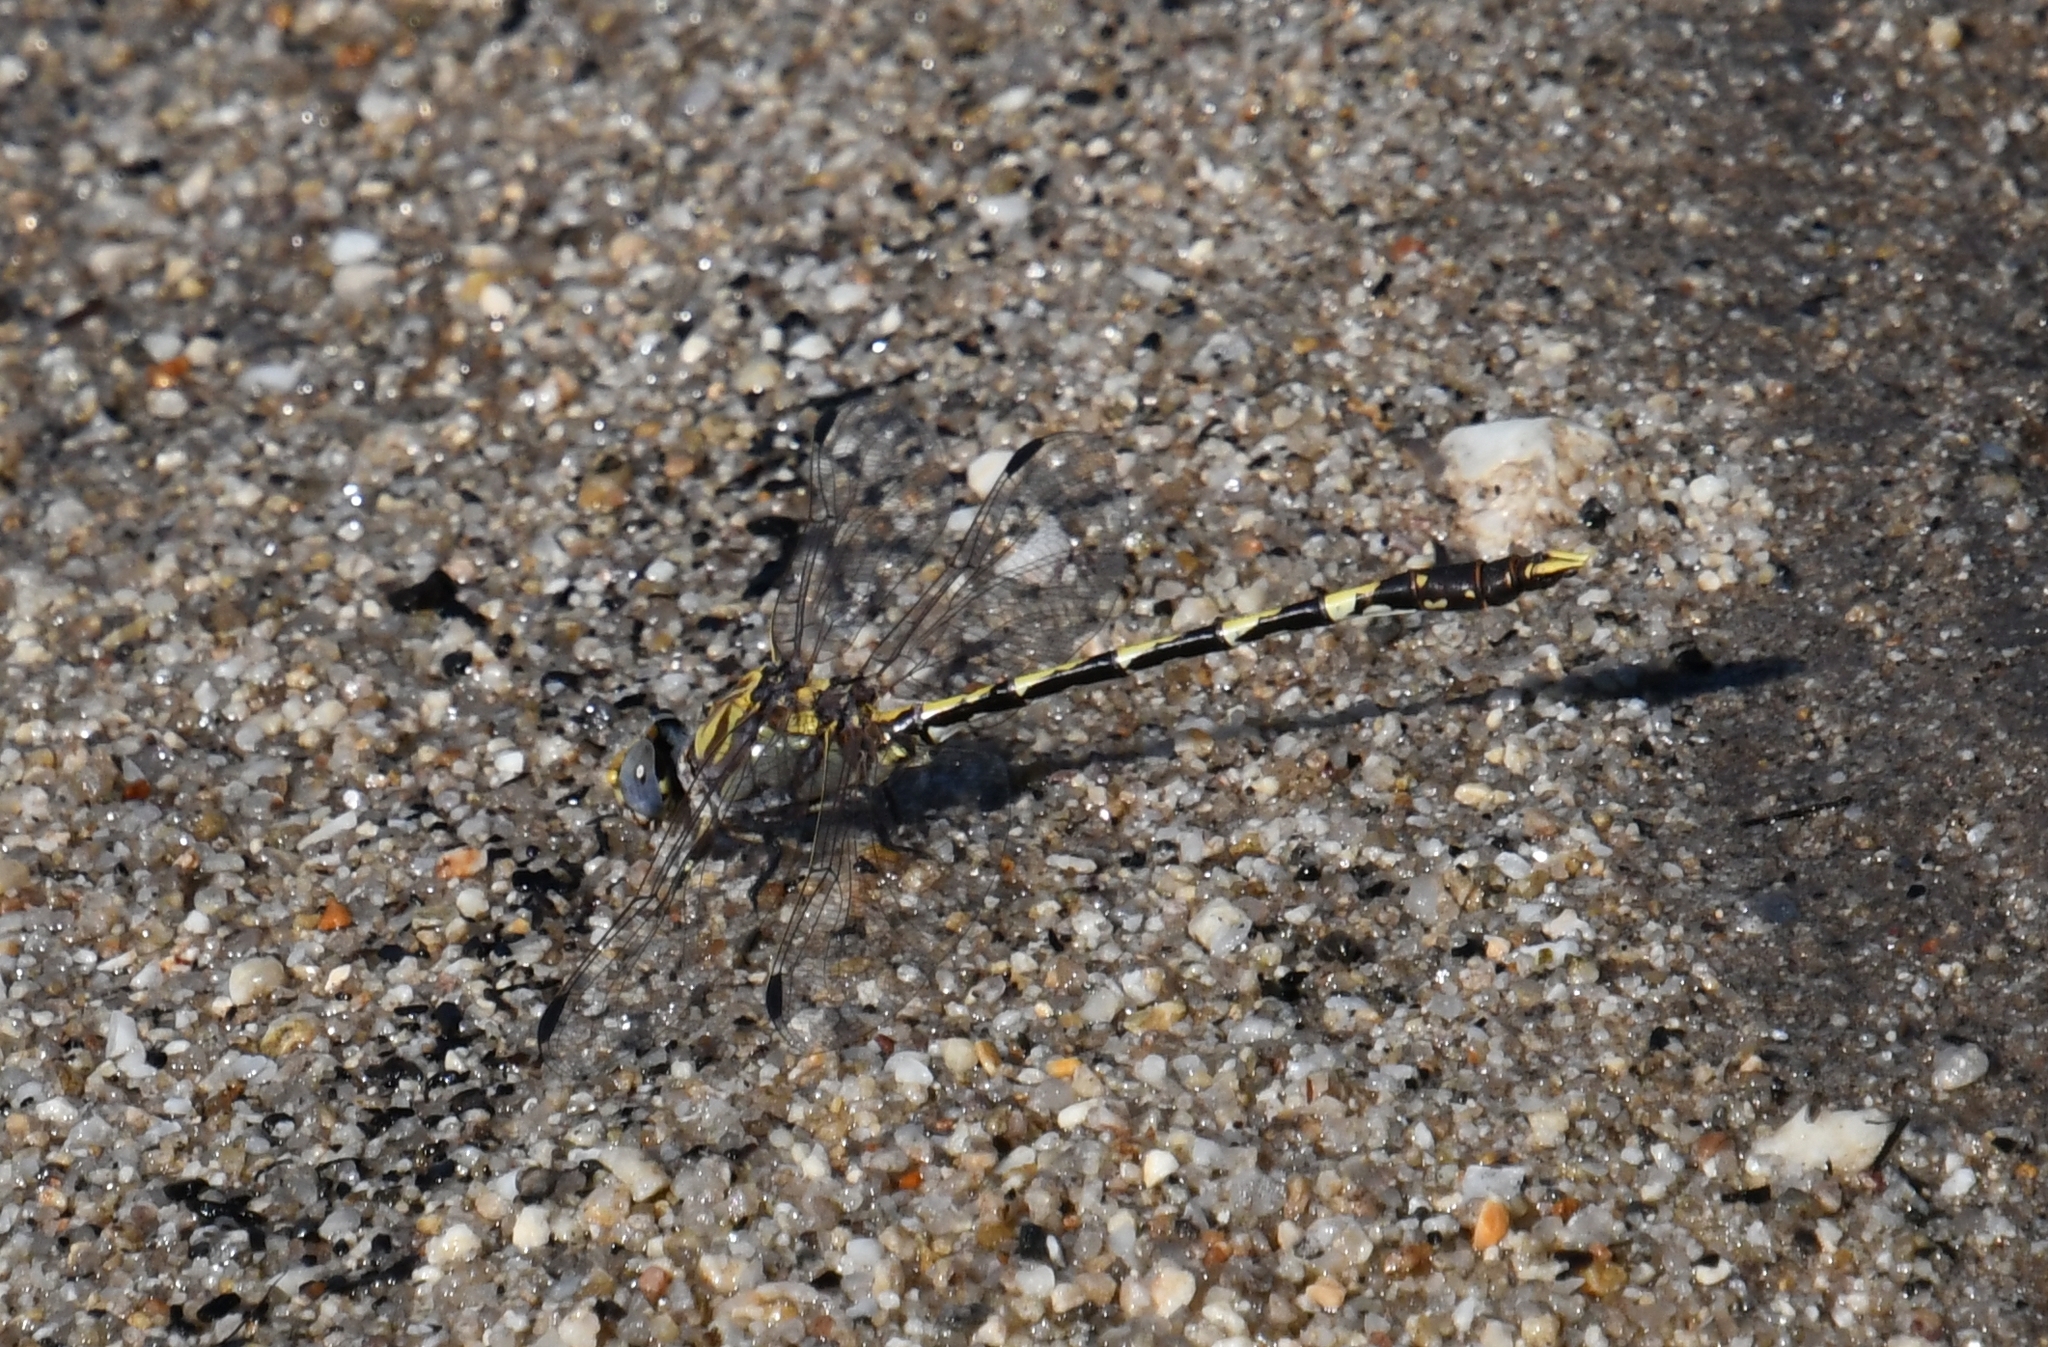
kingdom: Animalia
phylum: Arthropoda
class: Insecta
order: Odonata
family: Gomphidae
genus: Progomphus
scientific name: Progomphus borealis
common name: Gray sanddragon
